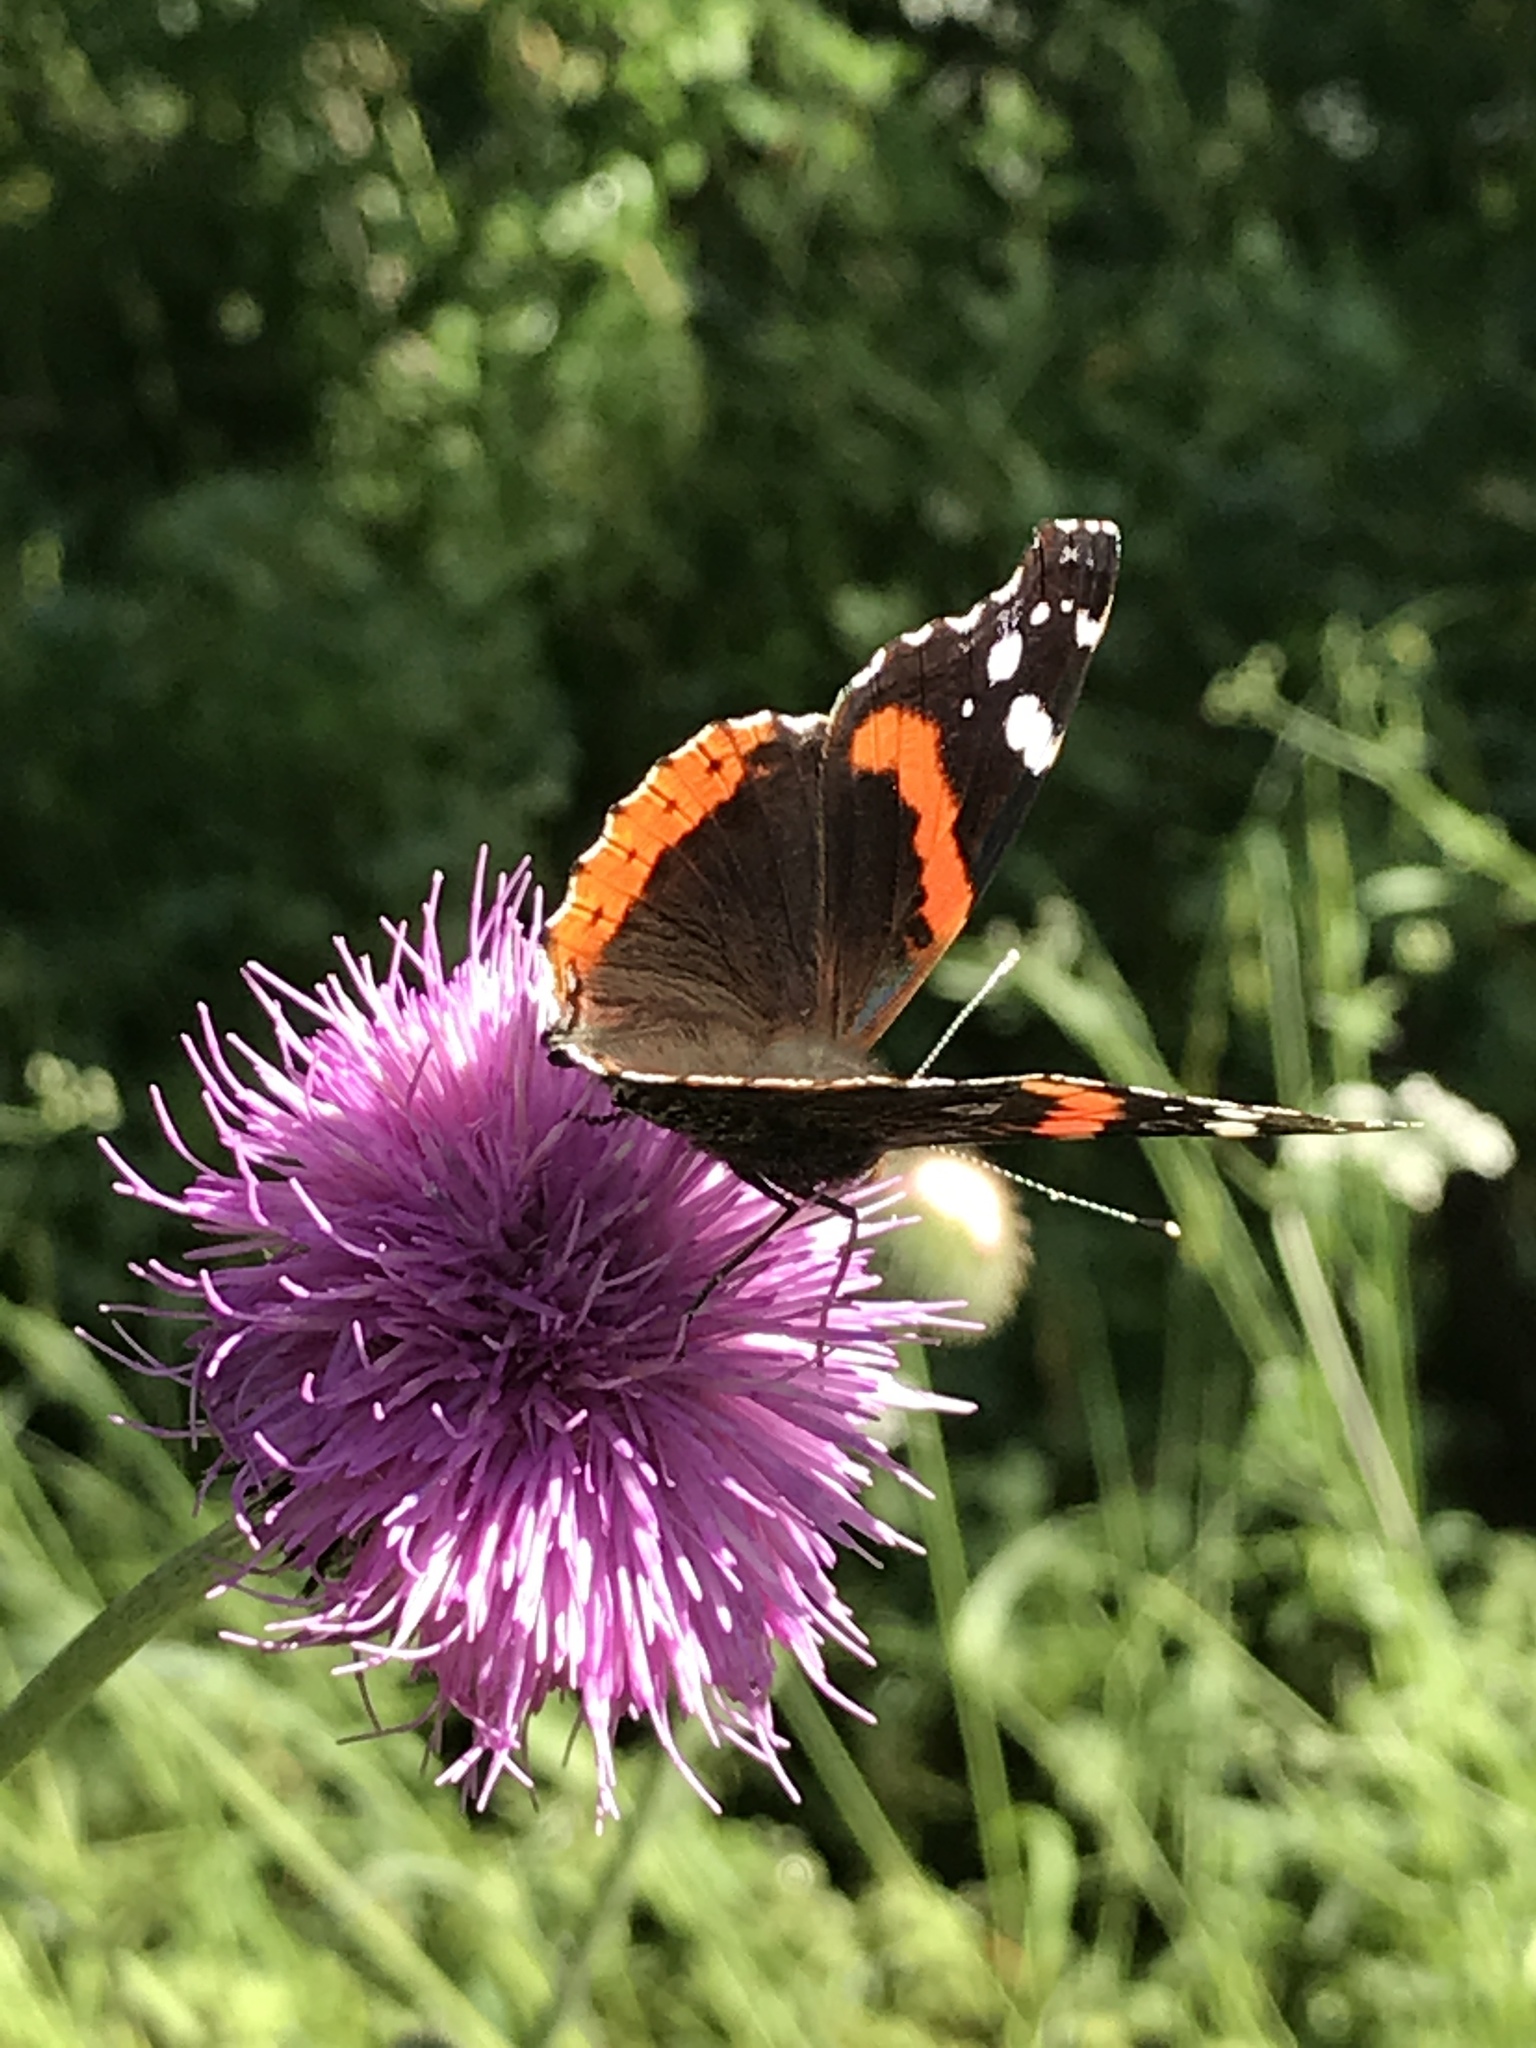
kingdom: Animalia
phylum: Arthropoda
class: Insecta
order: Lepidoptera
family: Nymphalidae
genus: Vanessa
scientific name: Vanessa atalanta
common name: Red admiral
